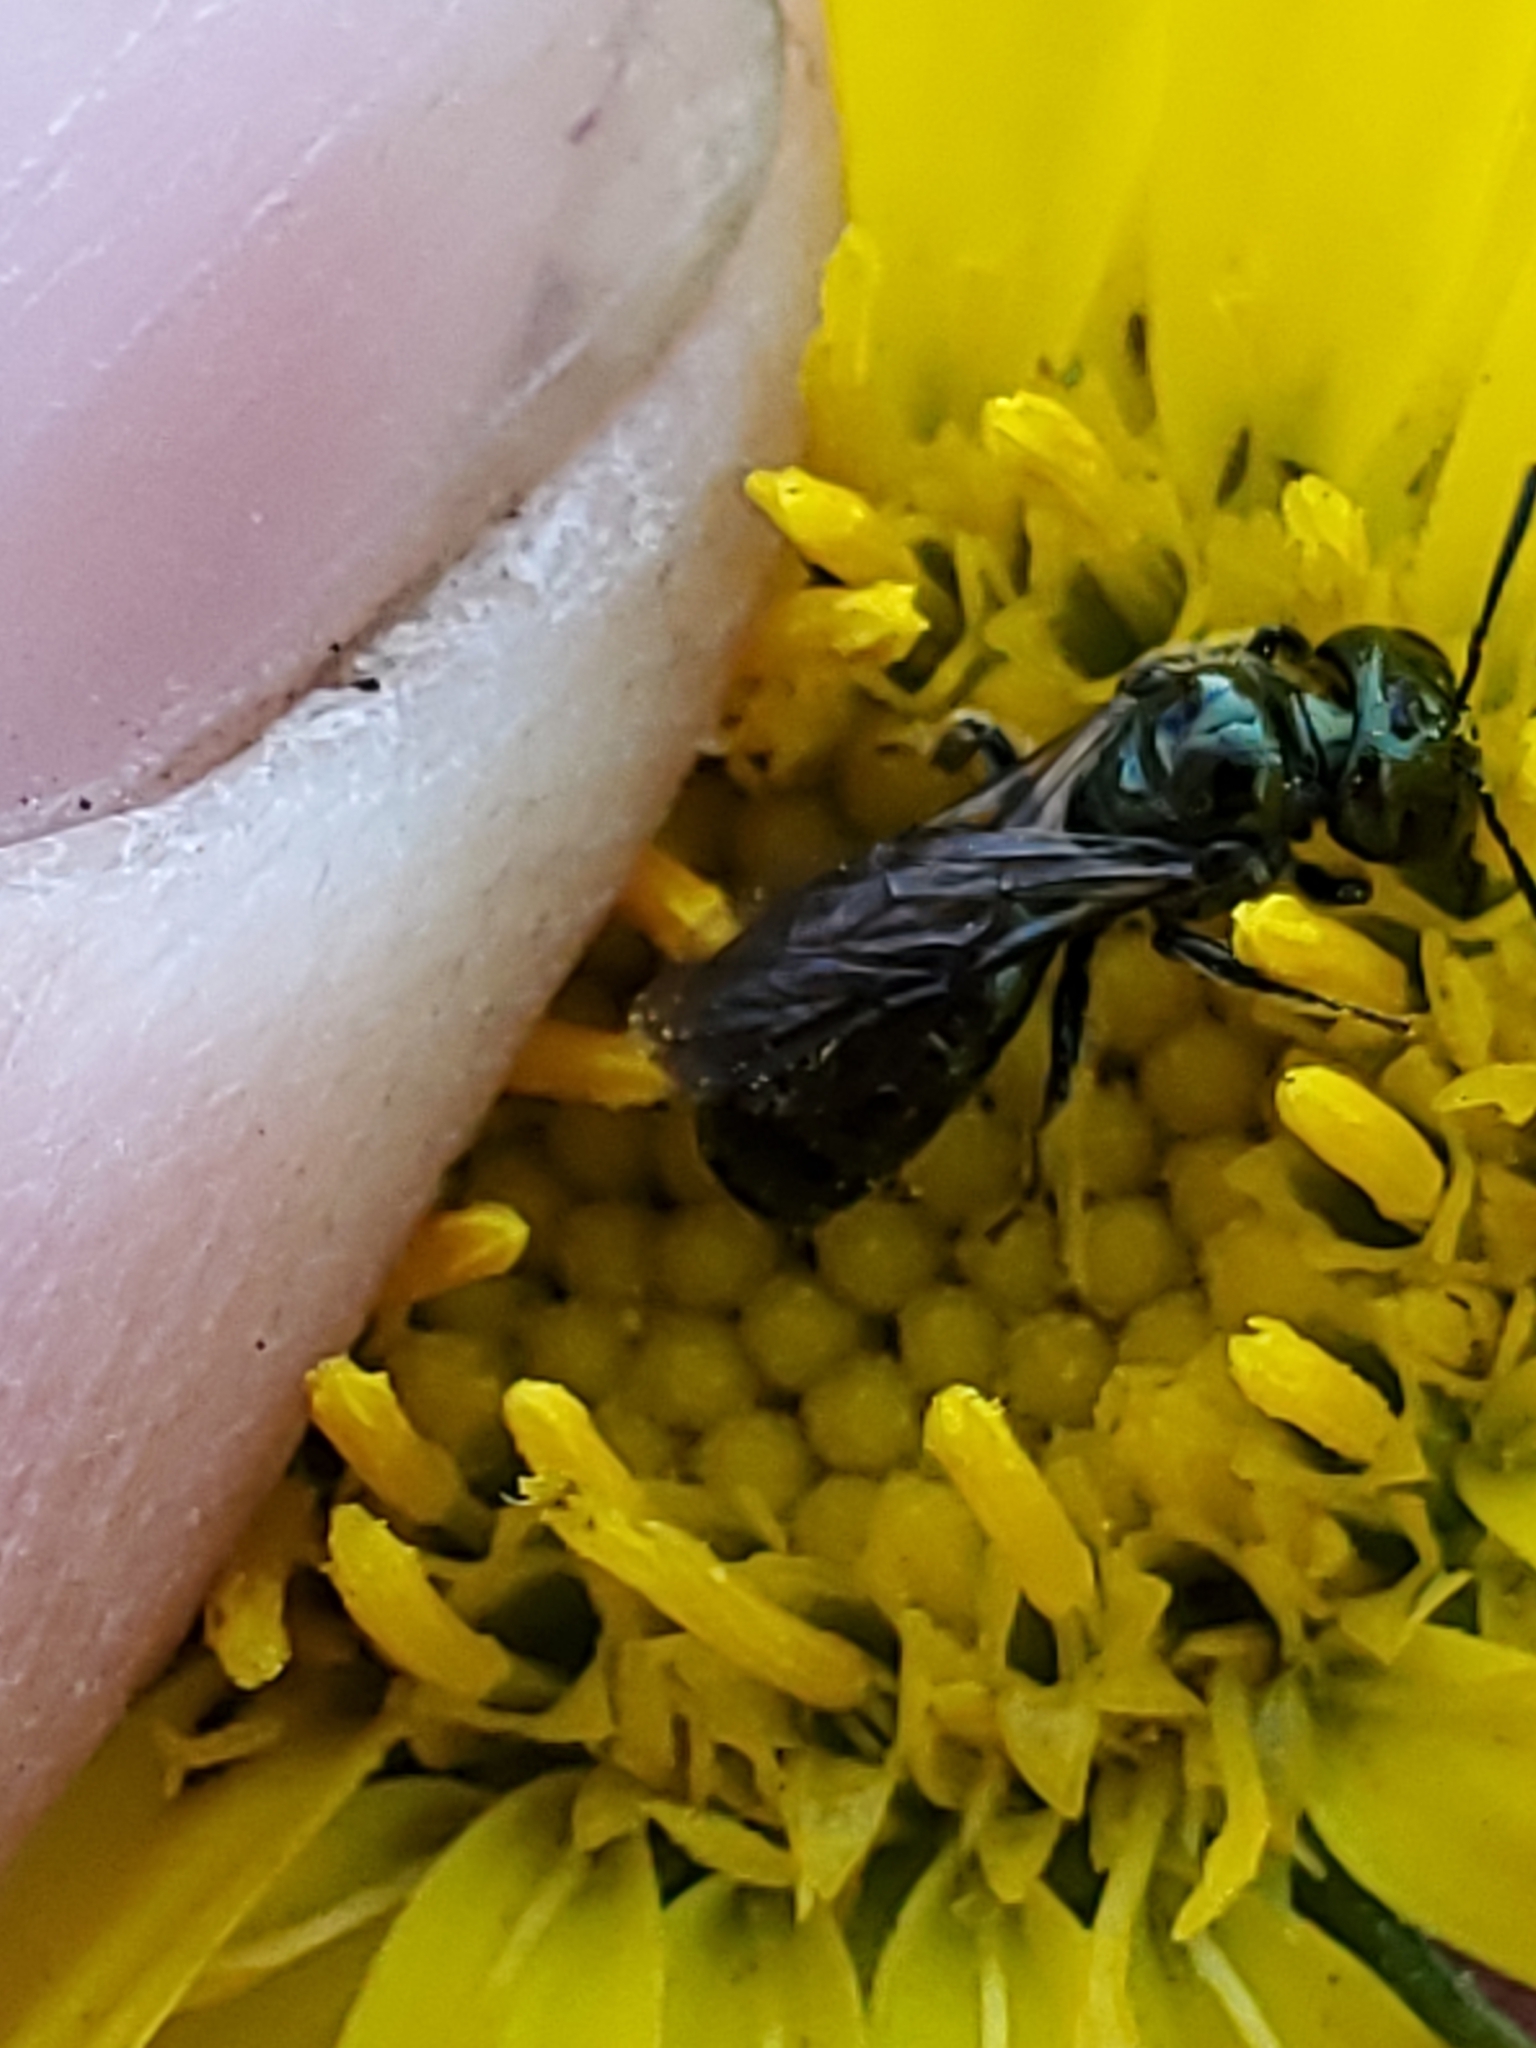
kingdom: Animalia
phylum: Arthropoda
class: Insecta
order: Hymenoptera
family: Apidae
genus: Zadontomerus
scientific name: Zadontomerus
